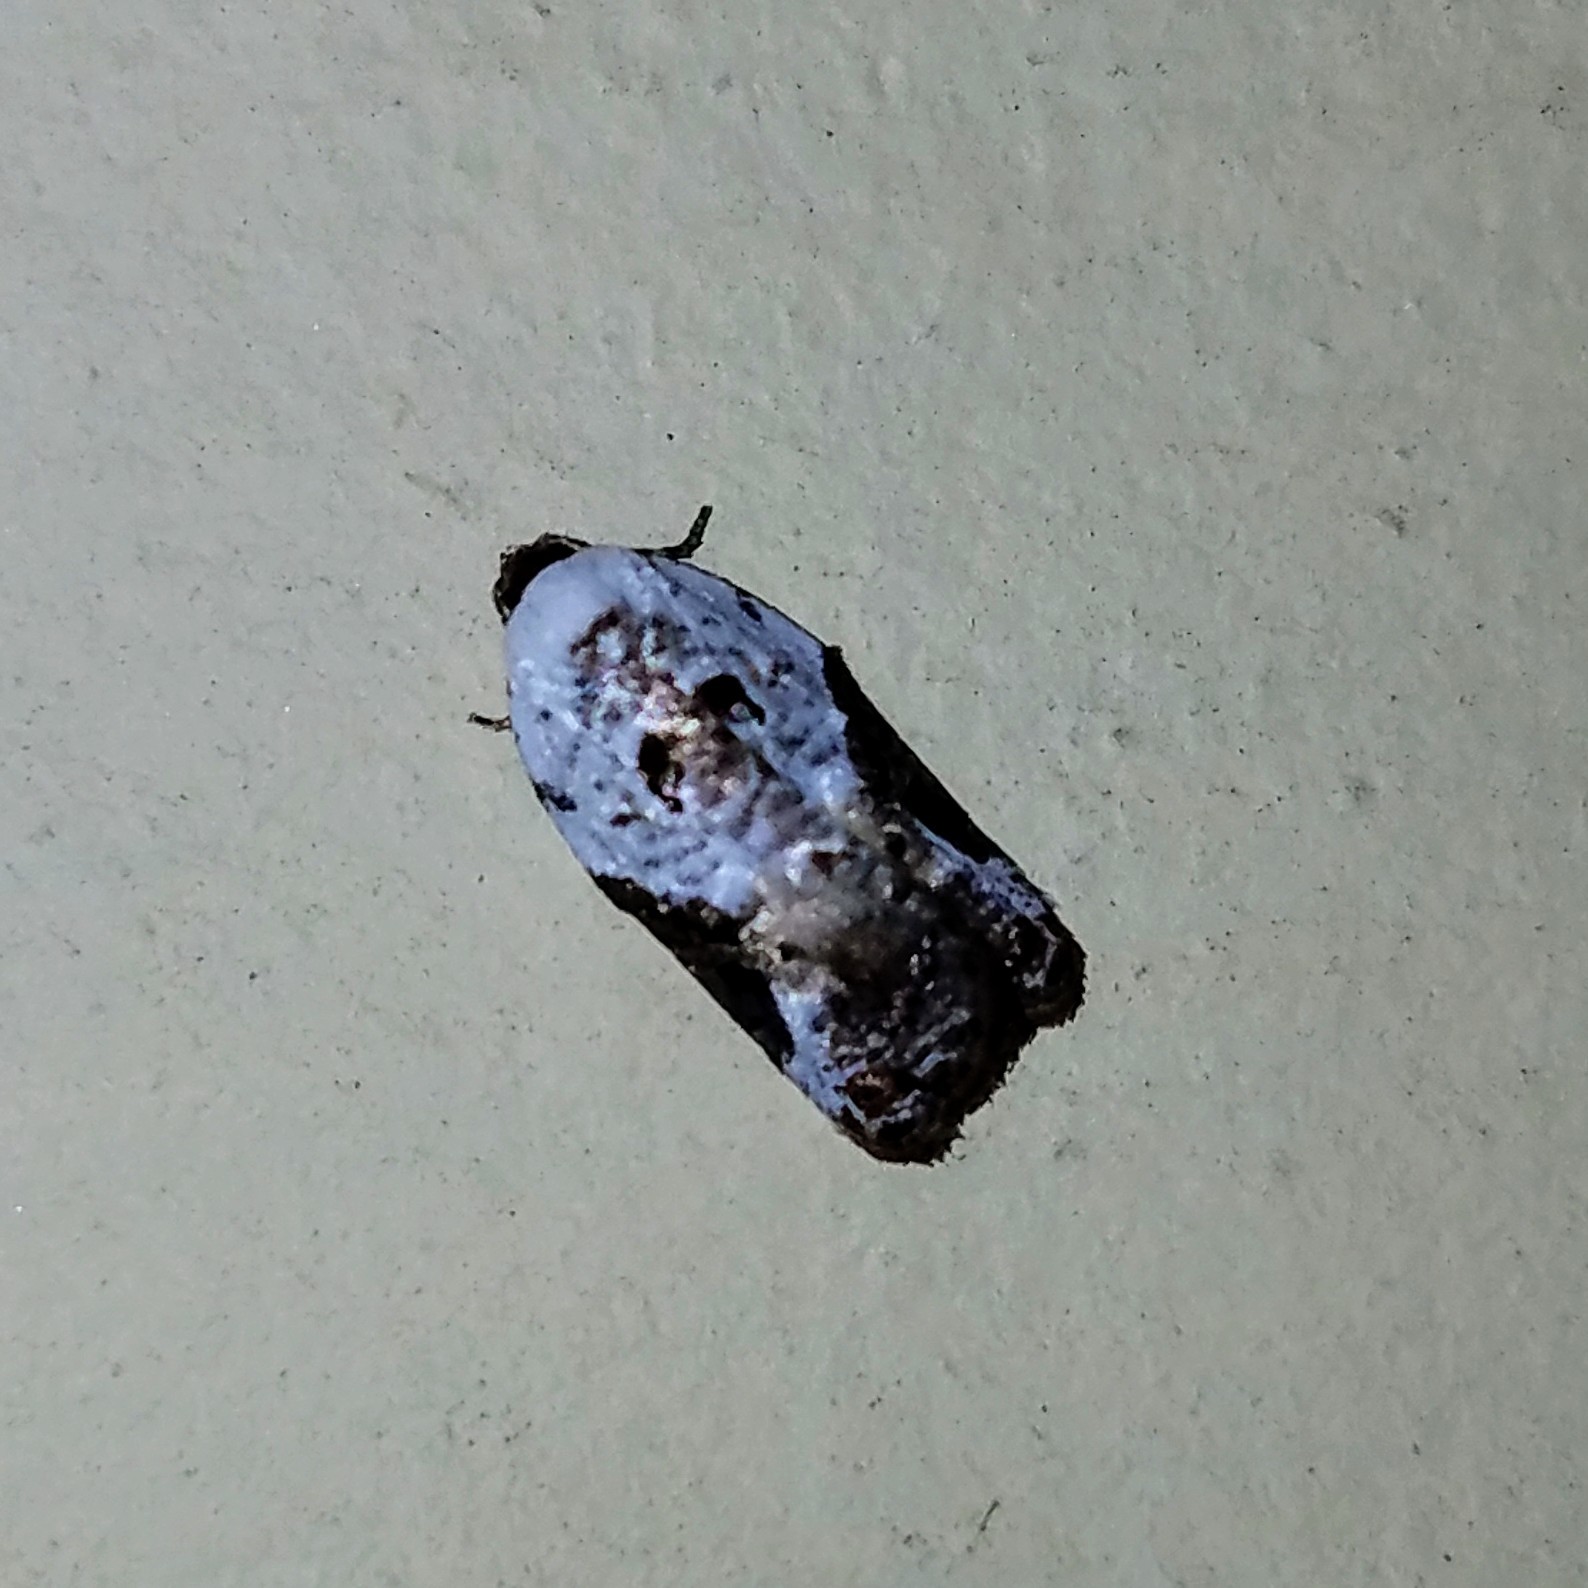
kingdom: Animalia
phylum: Arthropoda
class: Insecta
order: Lepidoptera
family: Tortricidae
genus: Acleris
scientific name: Acleris nivisellana
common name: Snowy-shouldered acleris moth
